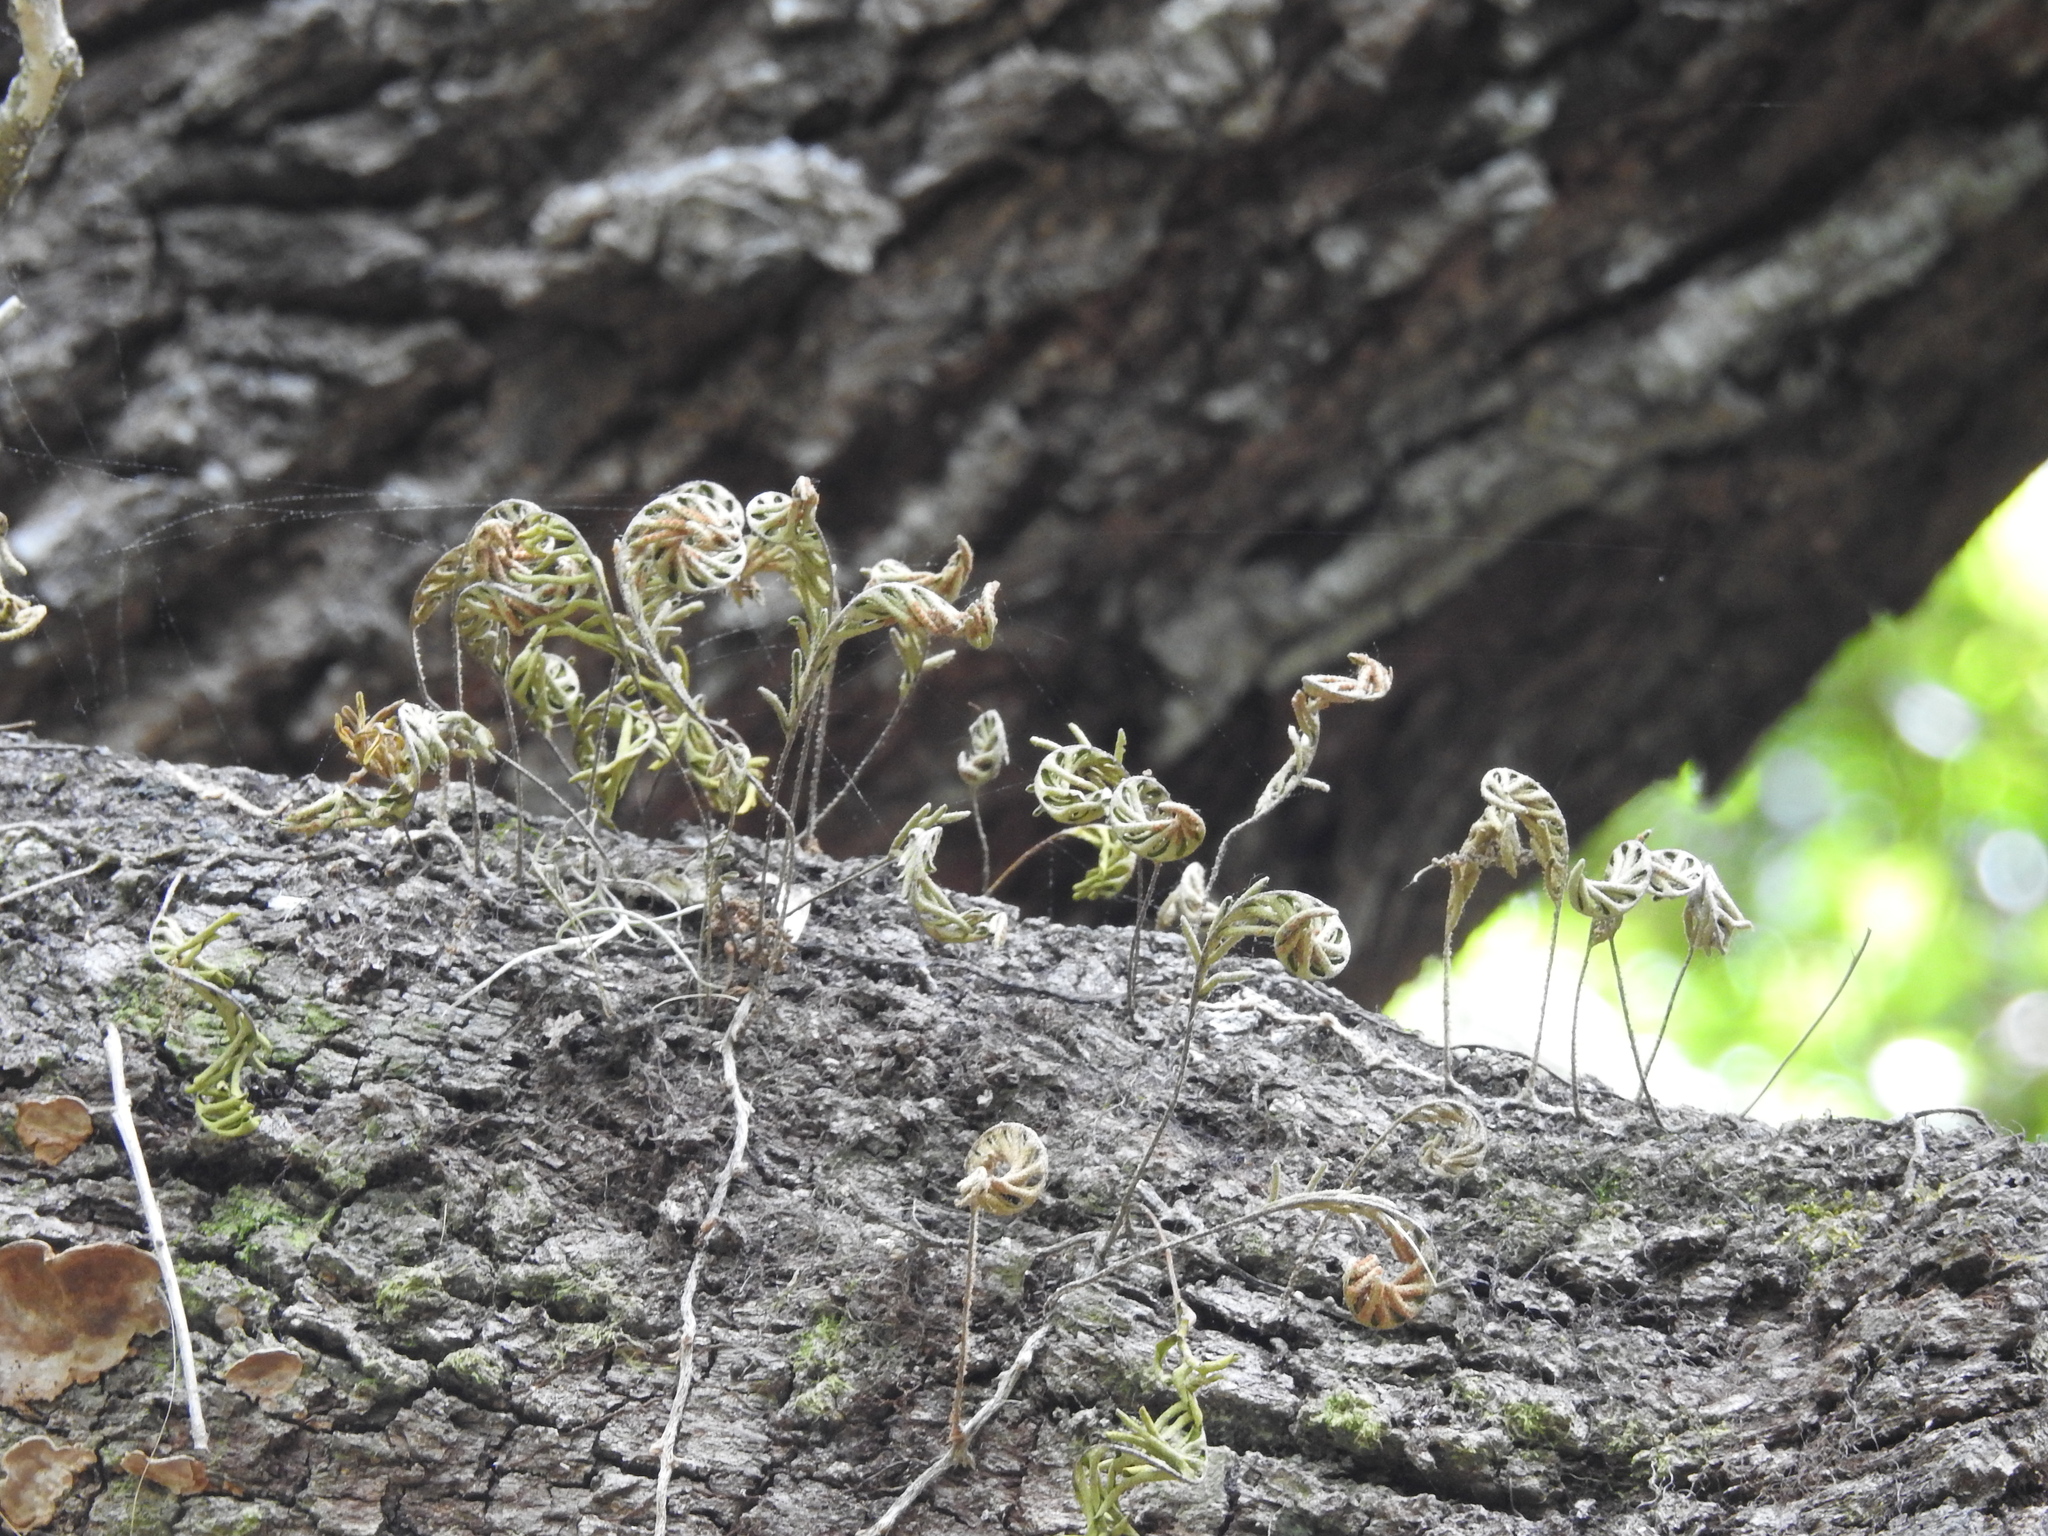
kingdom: Plantae
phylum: Tracheophyta
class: Polypodiopsida
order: Polypodiales
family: Polypodiaceae
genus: Pleopeltis
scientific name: Pleopeltis michauxiana
